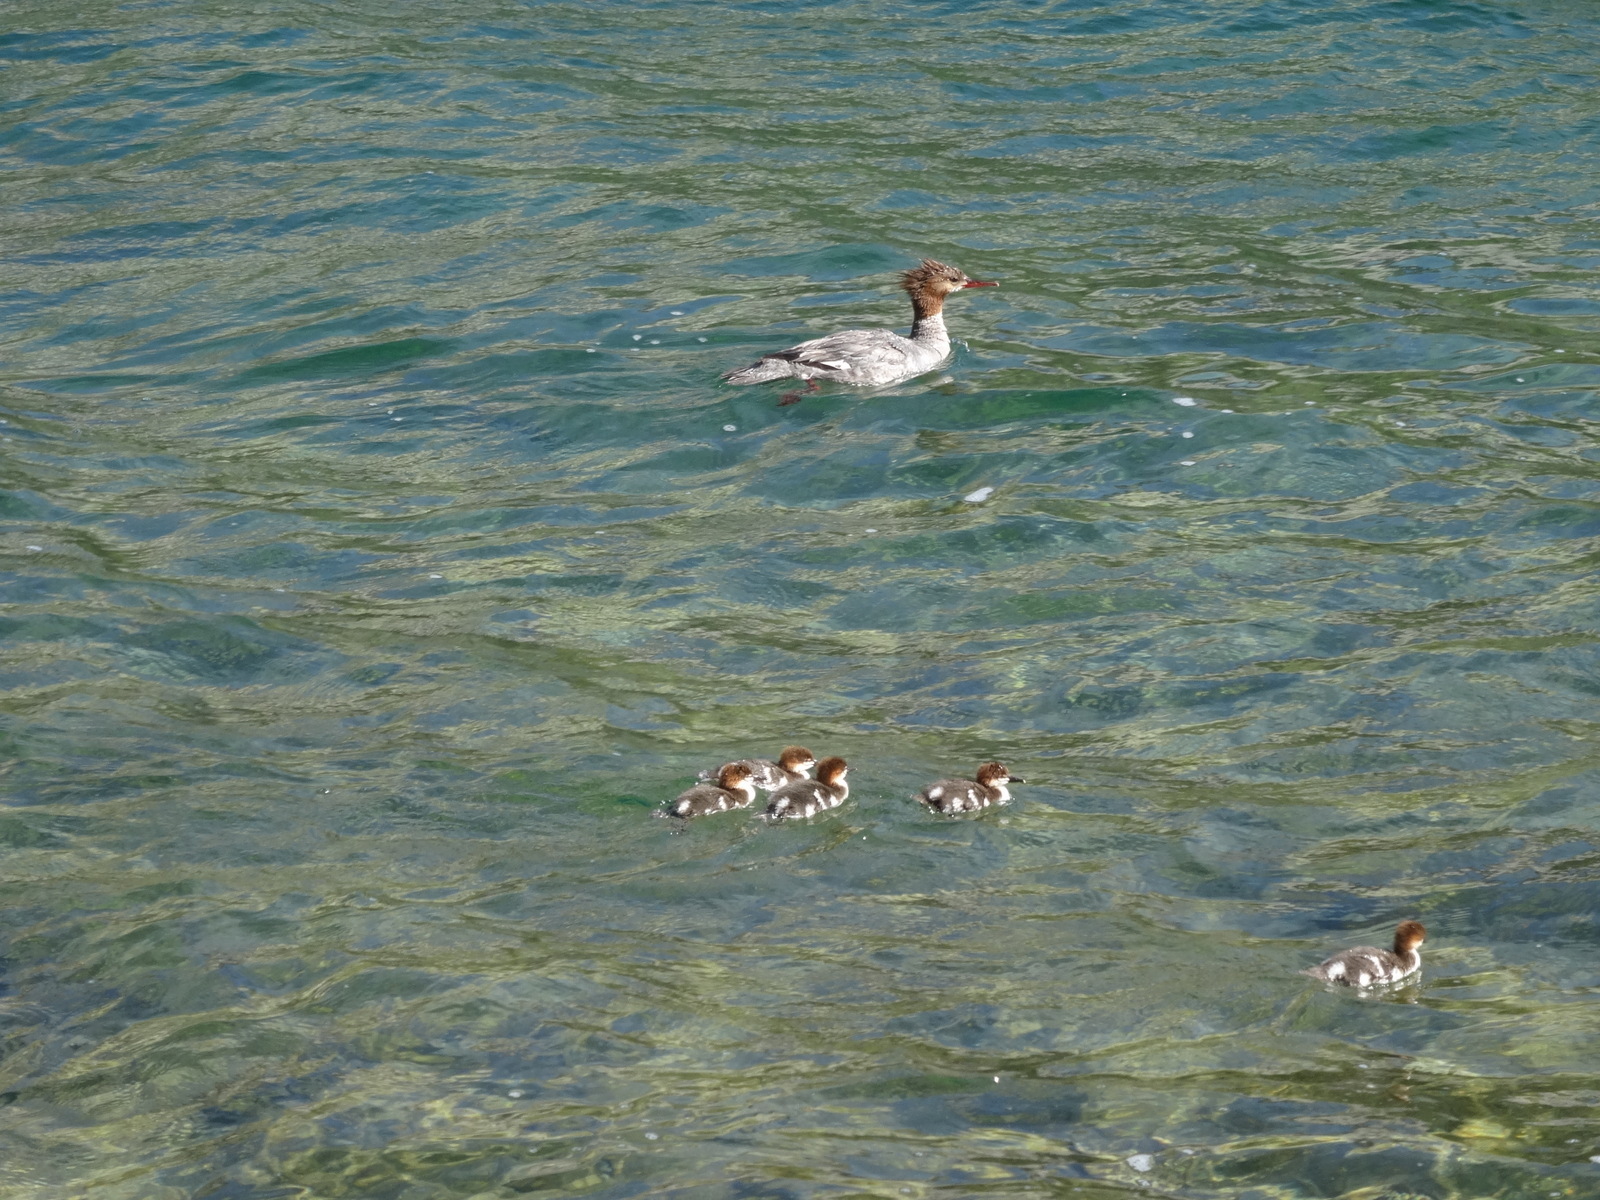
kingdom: Animalia
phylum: Chordata
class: Aves
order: Anseriformes
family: Anatidae
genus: Mergus
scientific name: Mergus merganser
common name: Common merganser
